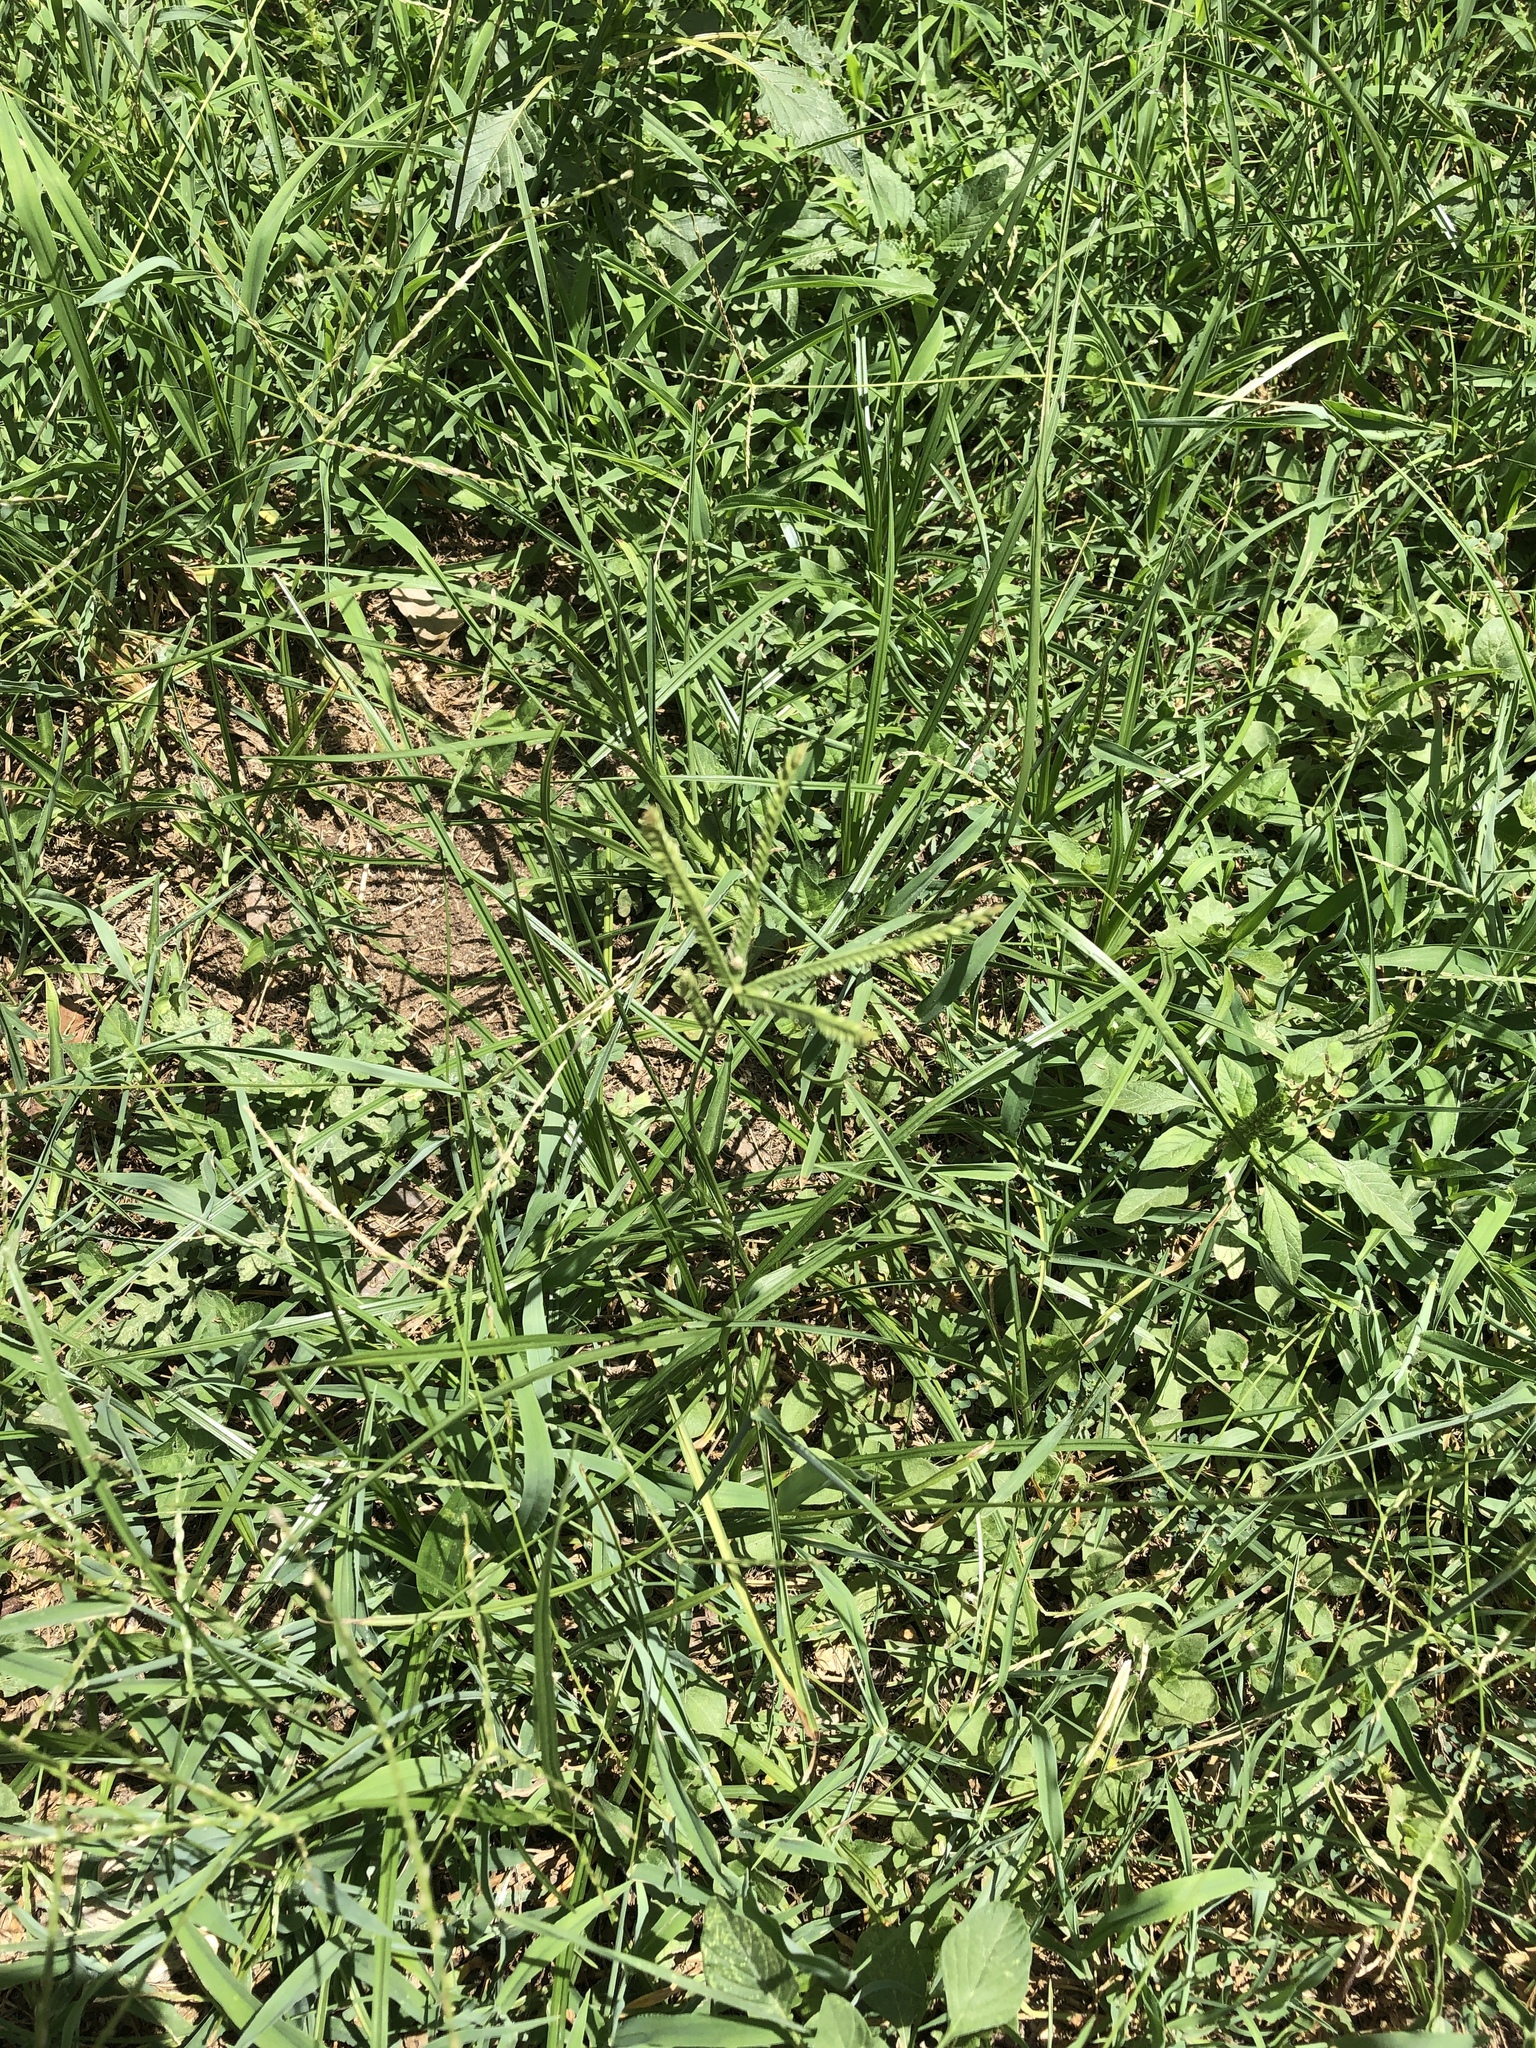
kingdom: Plantae
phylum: Tracheophyta
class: Liliopsida
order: Poales
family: Poaceae
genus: Eleusine
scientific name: Eleusine indica
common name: Yard-grass
